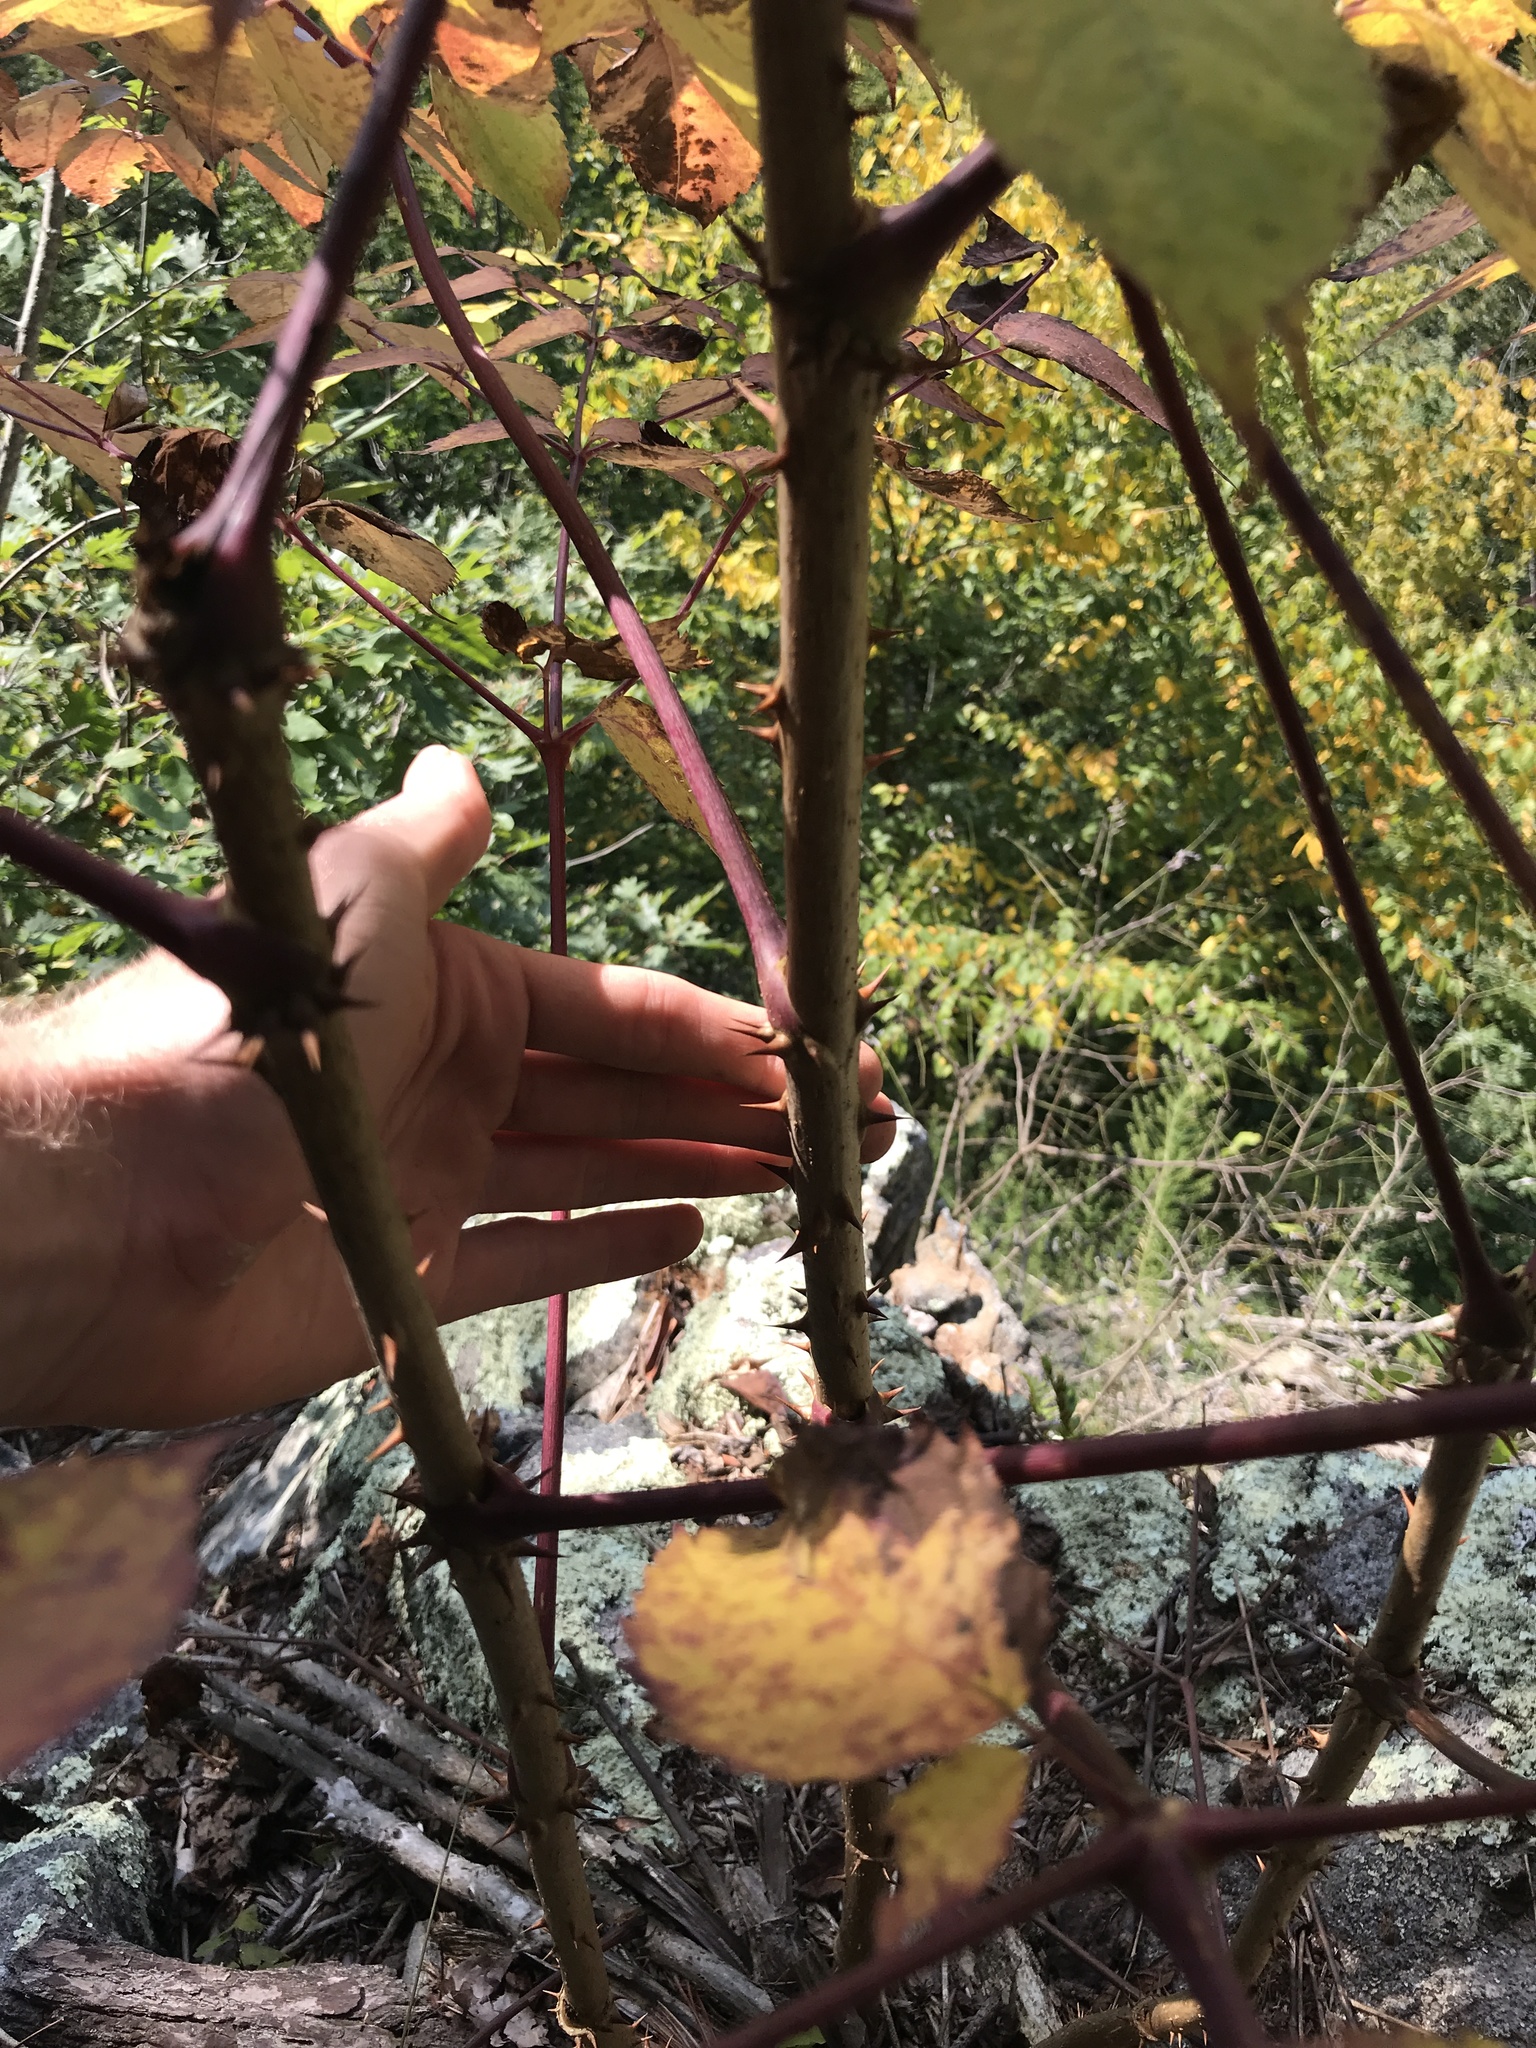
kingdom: Plantae
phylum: Tracheophyta
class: Magnoliopsida
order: Apiales
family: Araliaceae
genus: Aralia
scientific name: Aralia spinosa
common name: Hercules'-club
